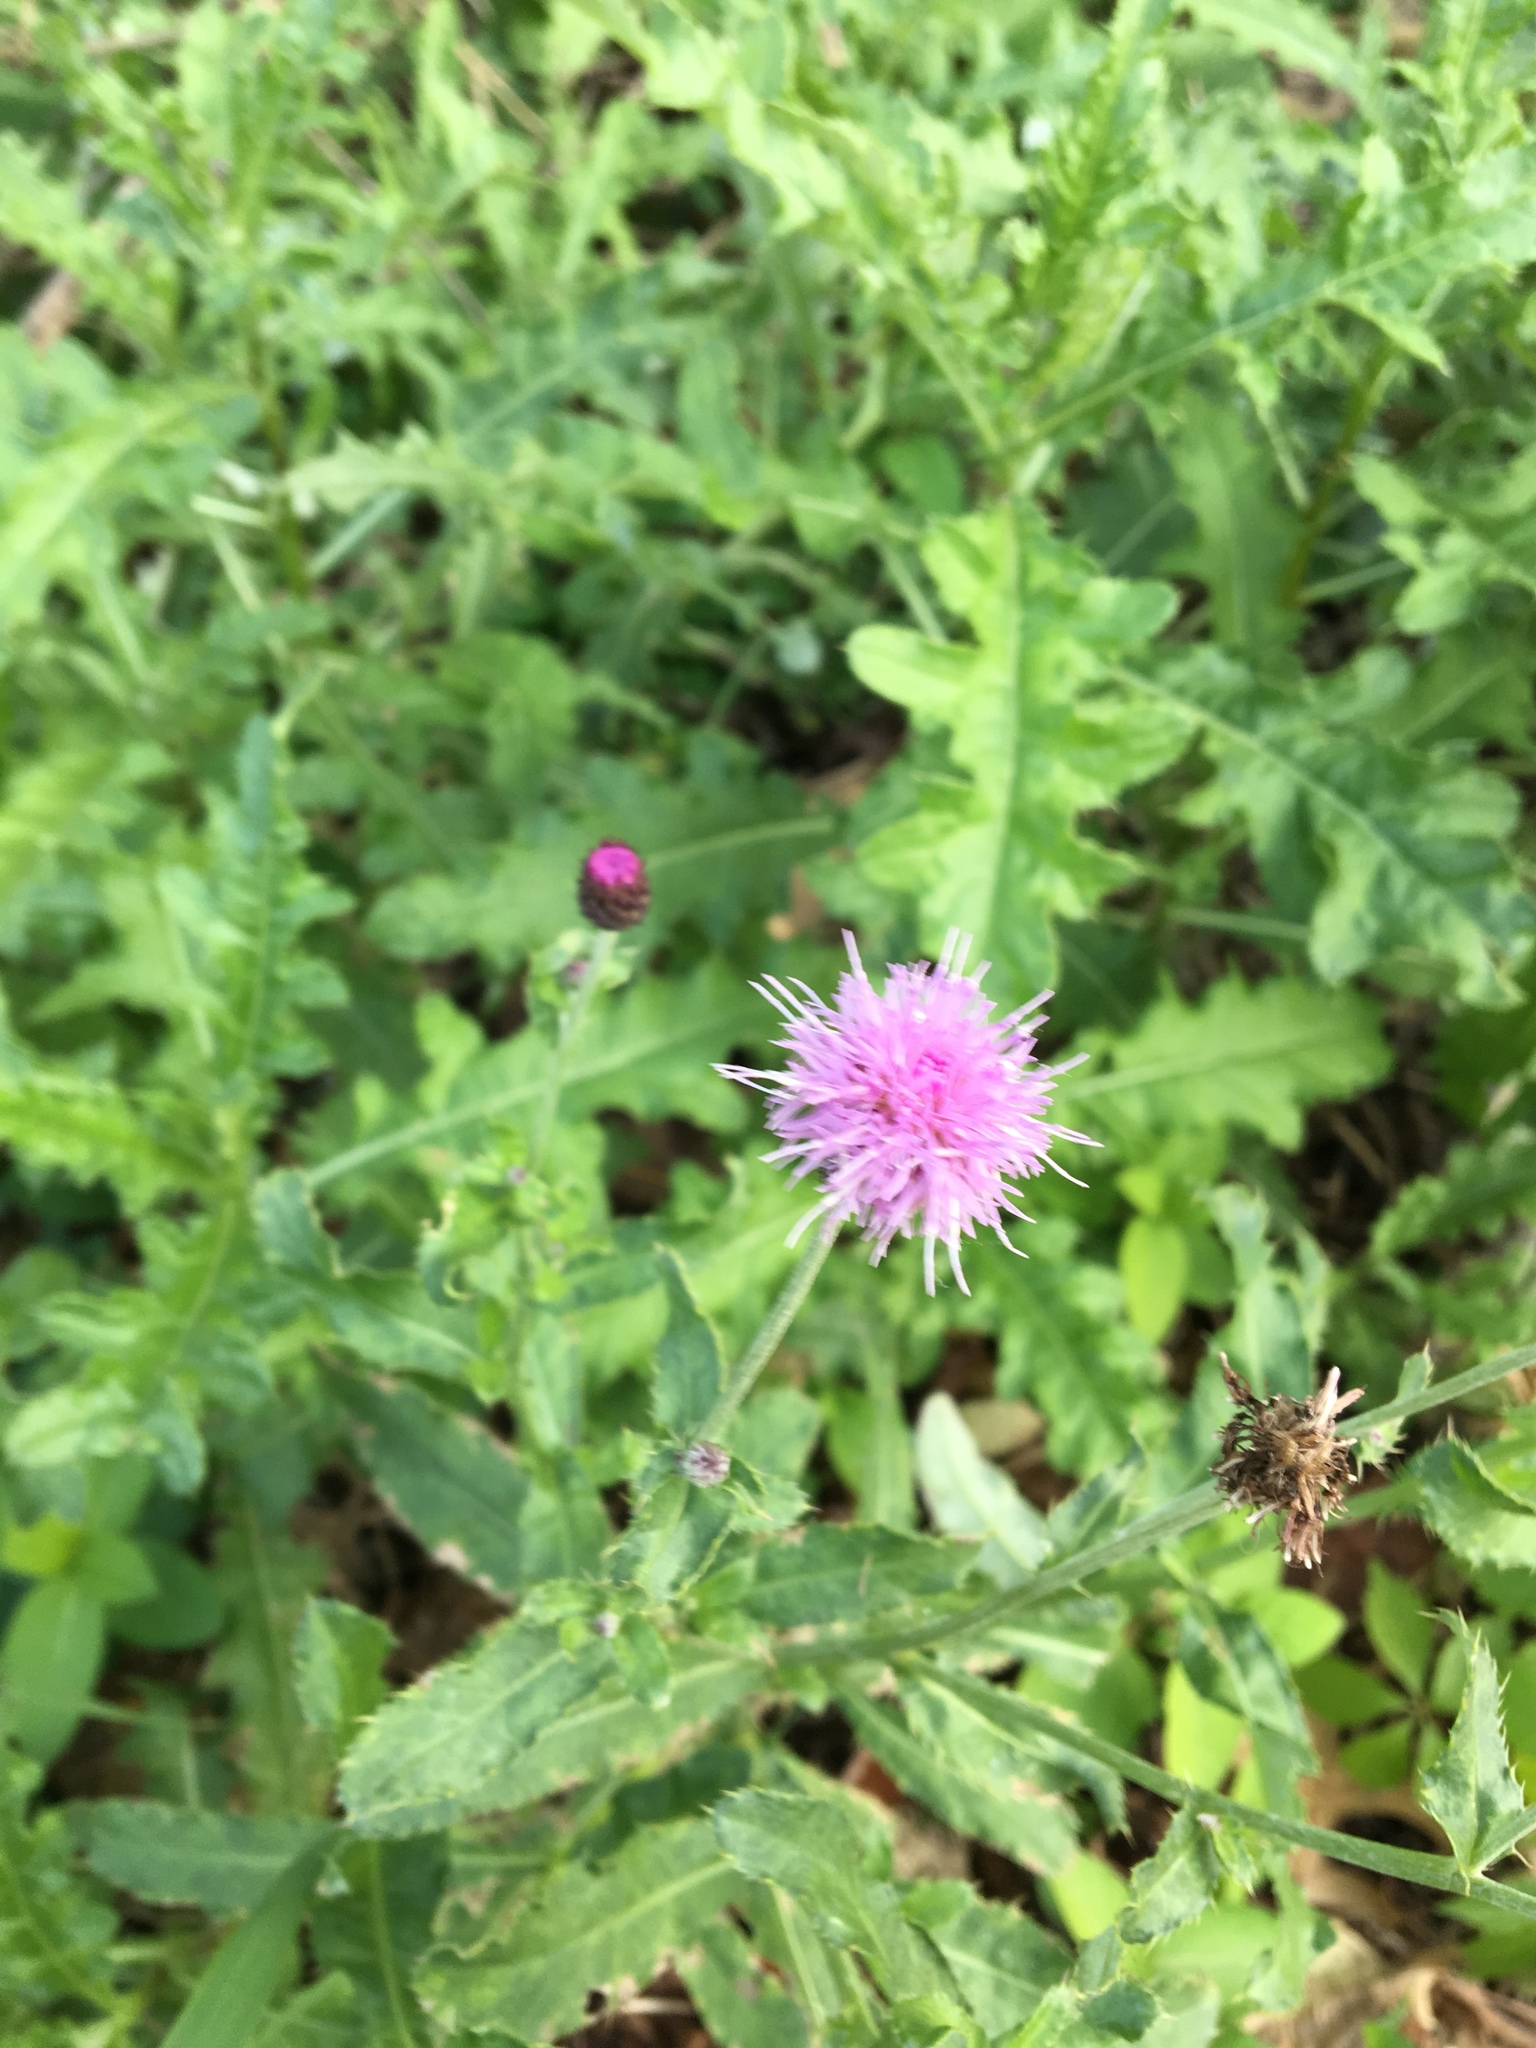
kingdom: Plantae
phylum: Tracheophyta
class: Magnoliopsida
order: Asterales
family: Asteraceae
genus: Cirsium
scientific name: Cirsium arvense
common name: Creeping thistle
